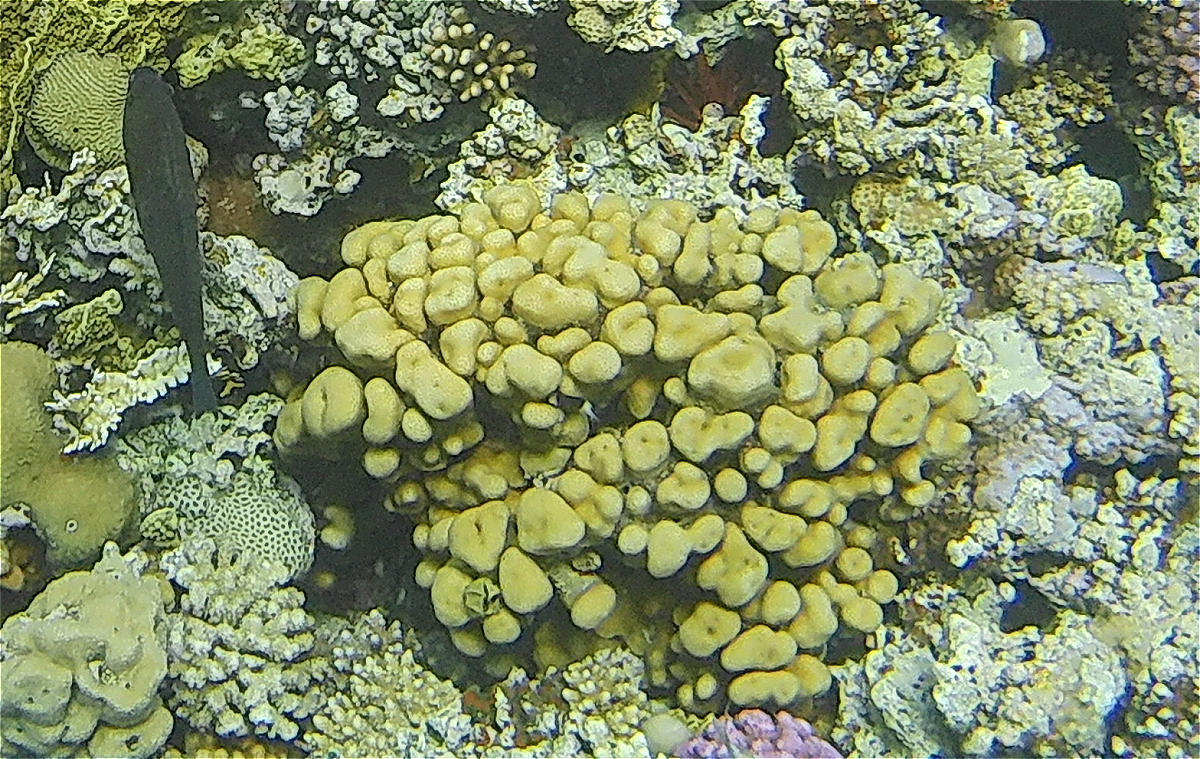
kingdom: Animalia
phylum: Cnidaria
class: Anthozoa
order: Scleractinia
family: Merulinidae
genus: Goniastrea
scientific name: Goniastrea stelligera
